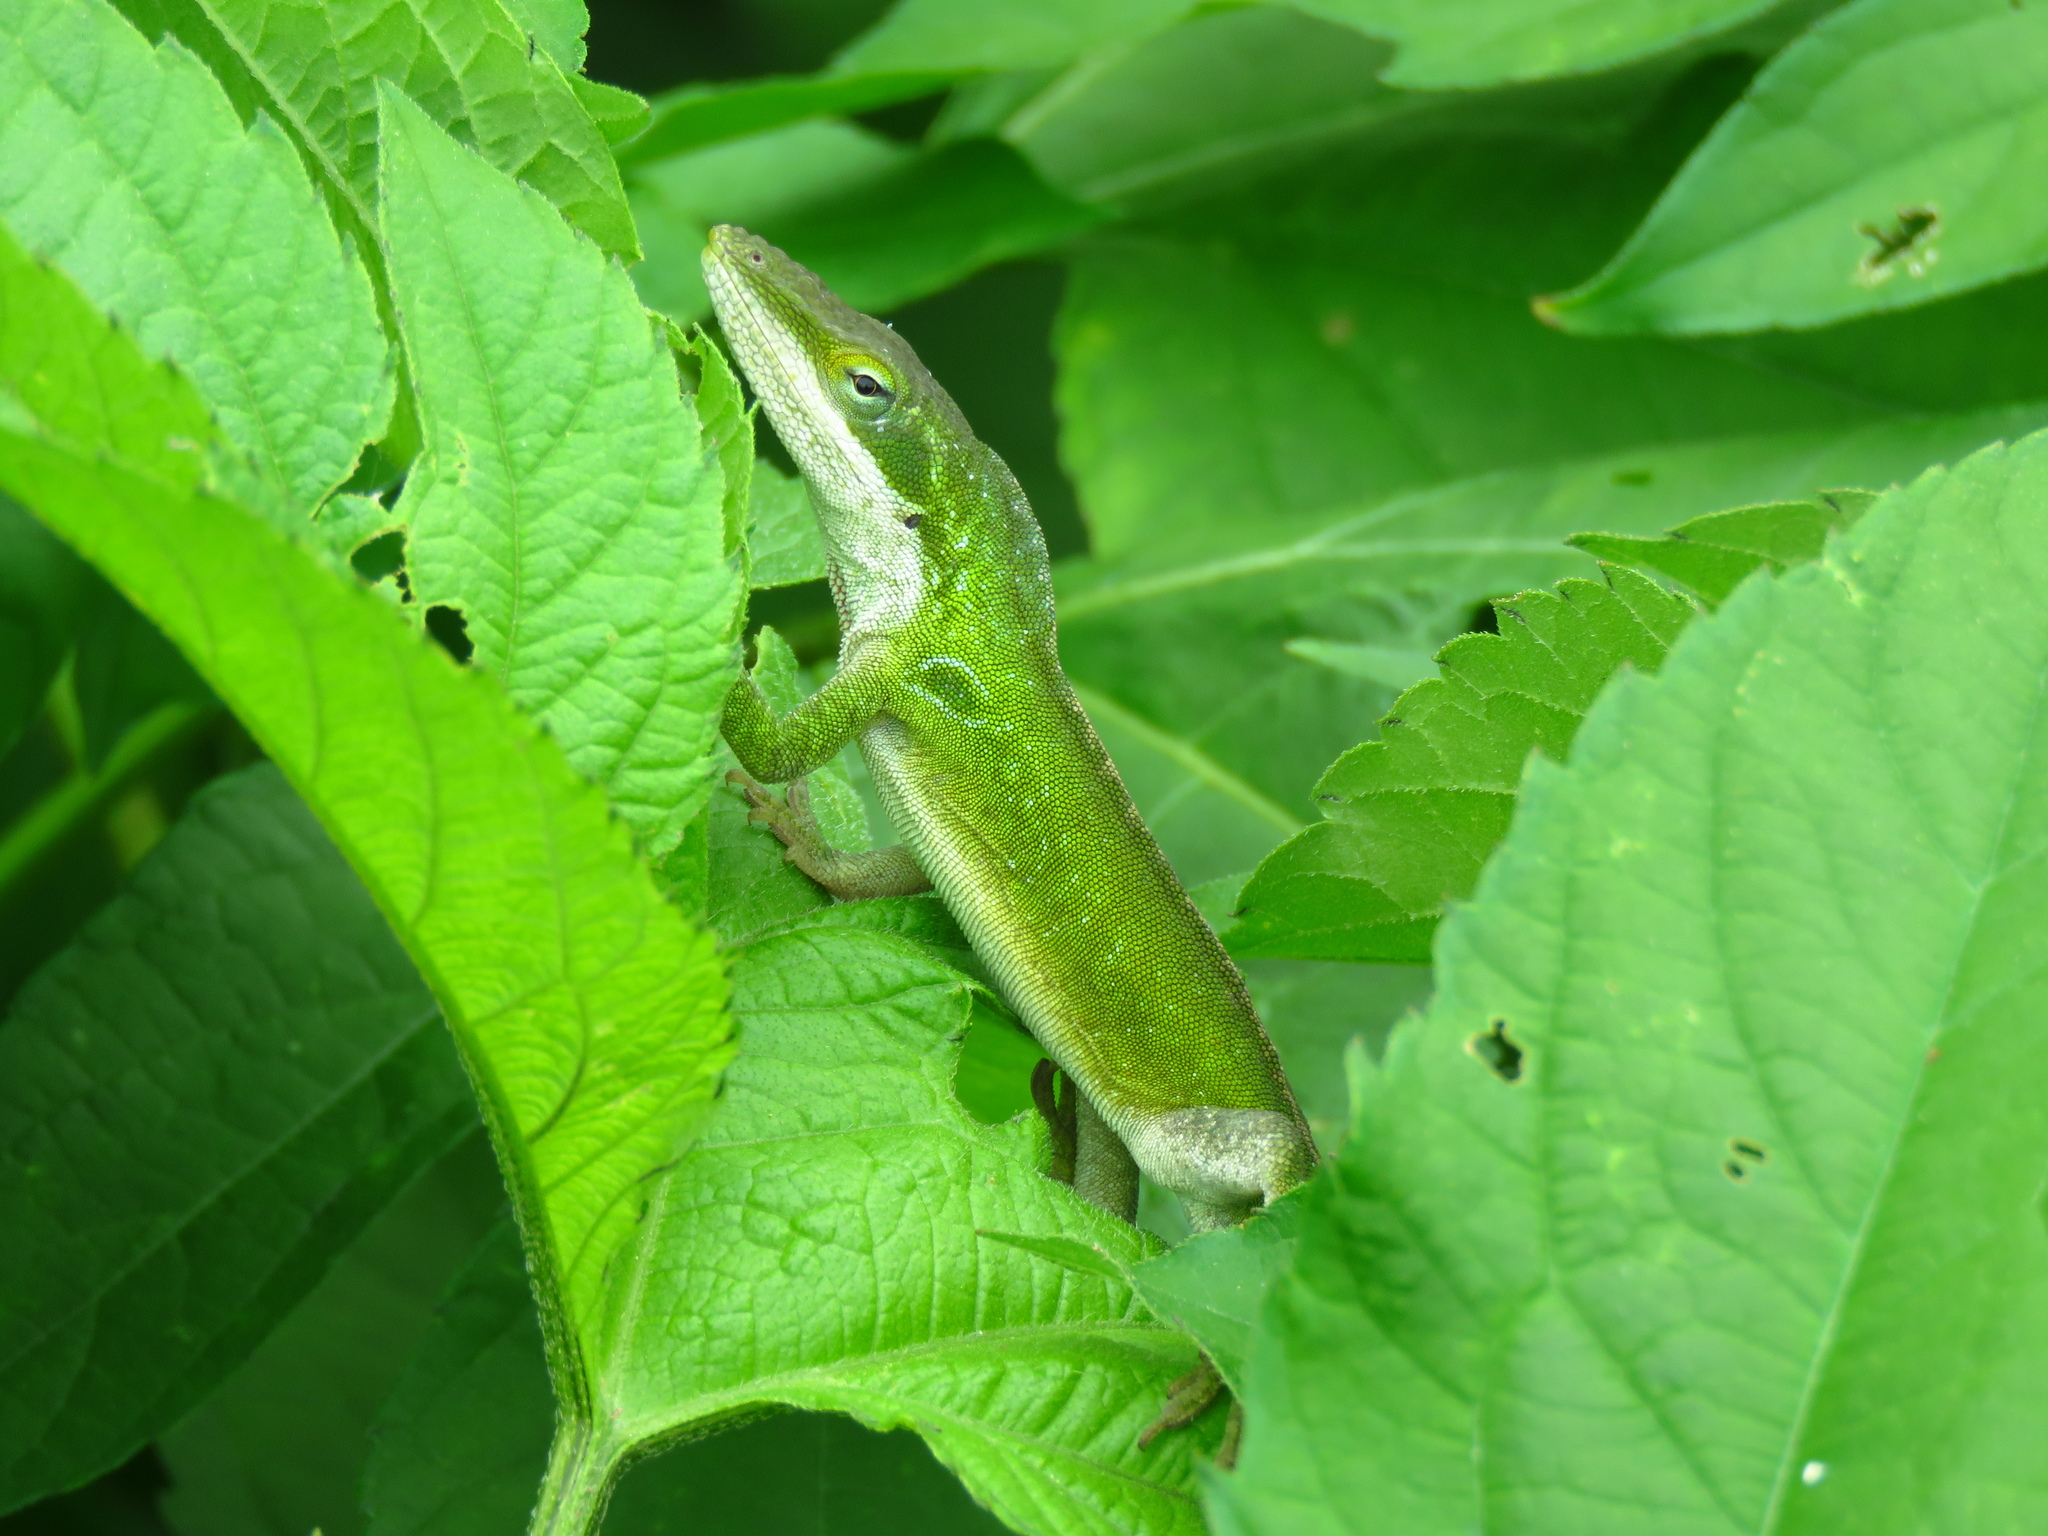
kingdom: Animalia
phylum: Chordata
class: Squamata
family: Dactyloidae
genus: Anolis
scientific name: Anolis carolinensis
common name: Green anole
